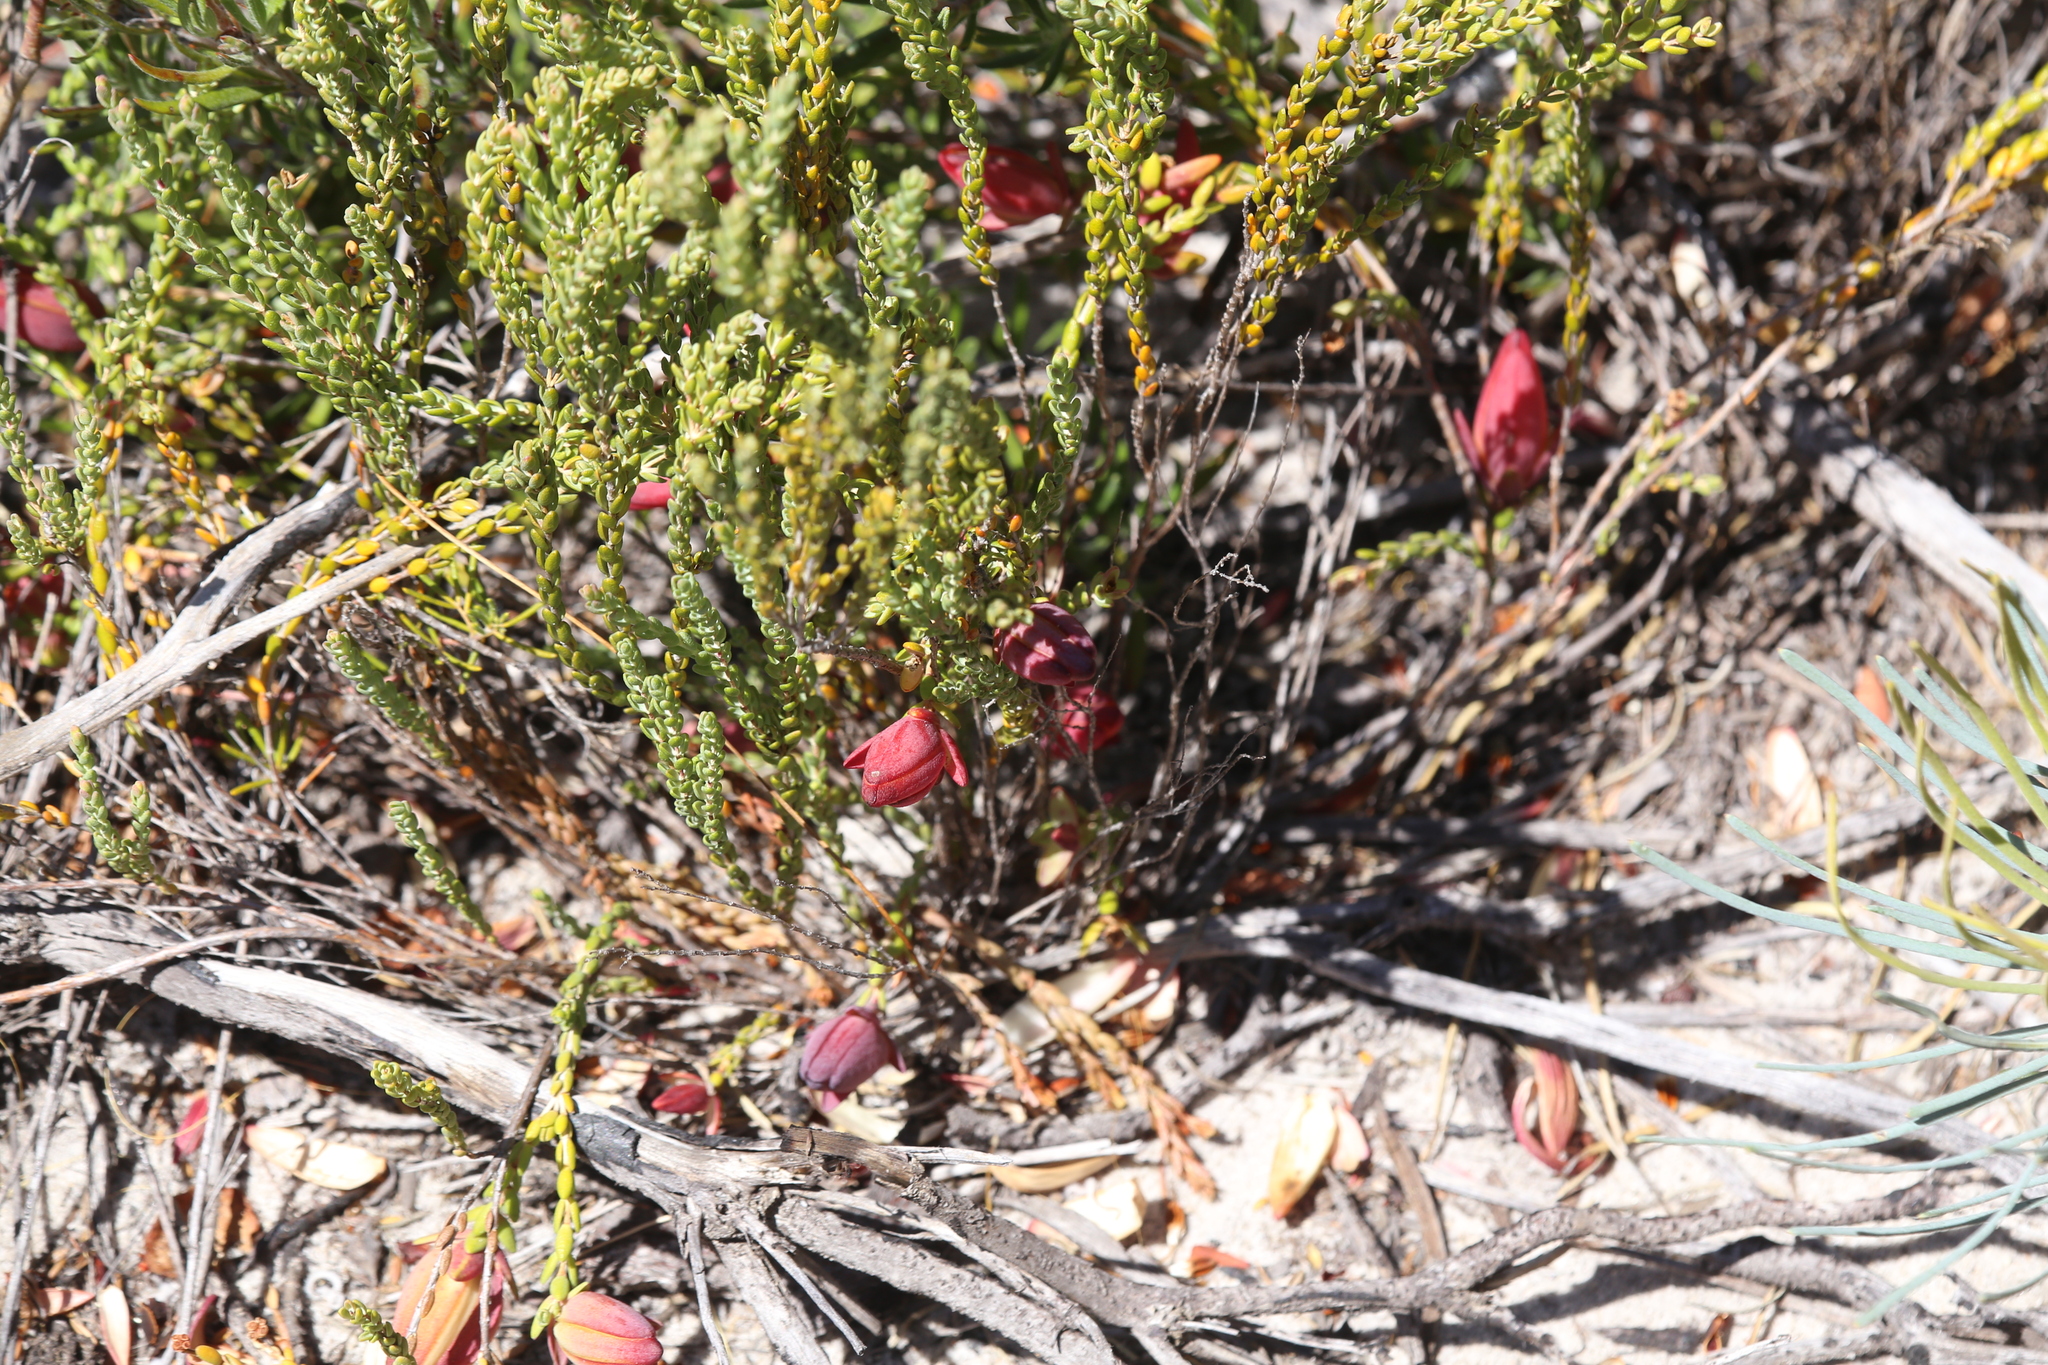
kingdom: Plantae
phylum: Tracheophyta
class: Magnoliopsida
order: Myrtales
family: Myrtaceae
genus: Darwinia
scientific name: Darwinia speciosa
